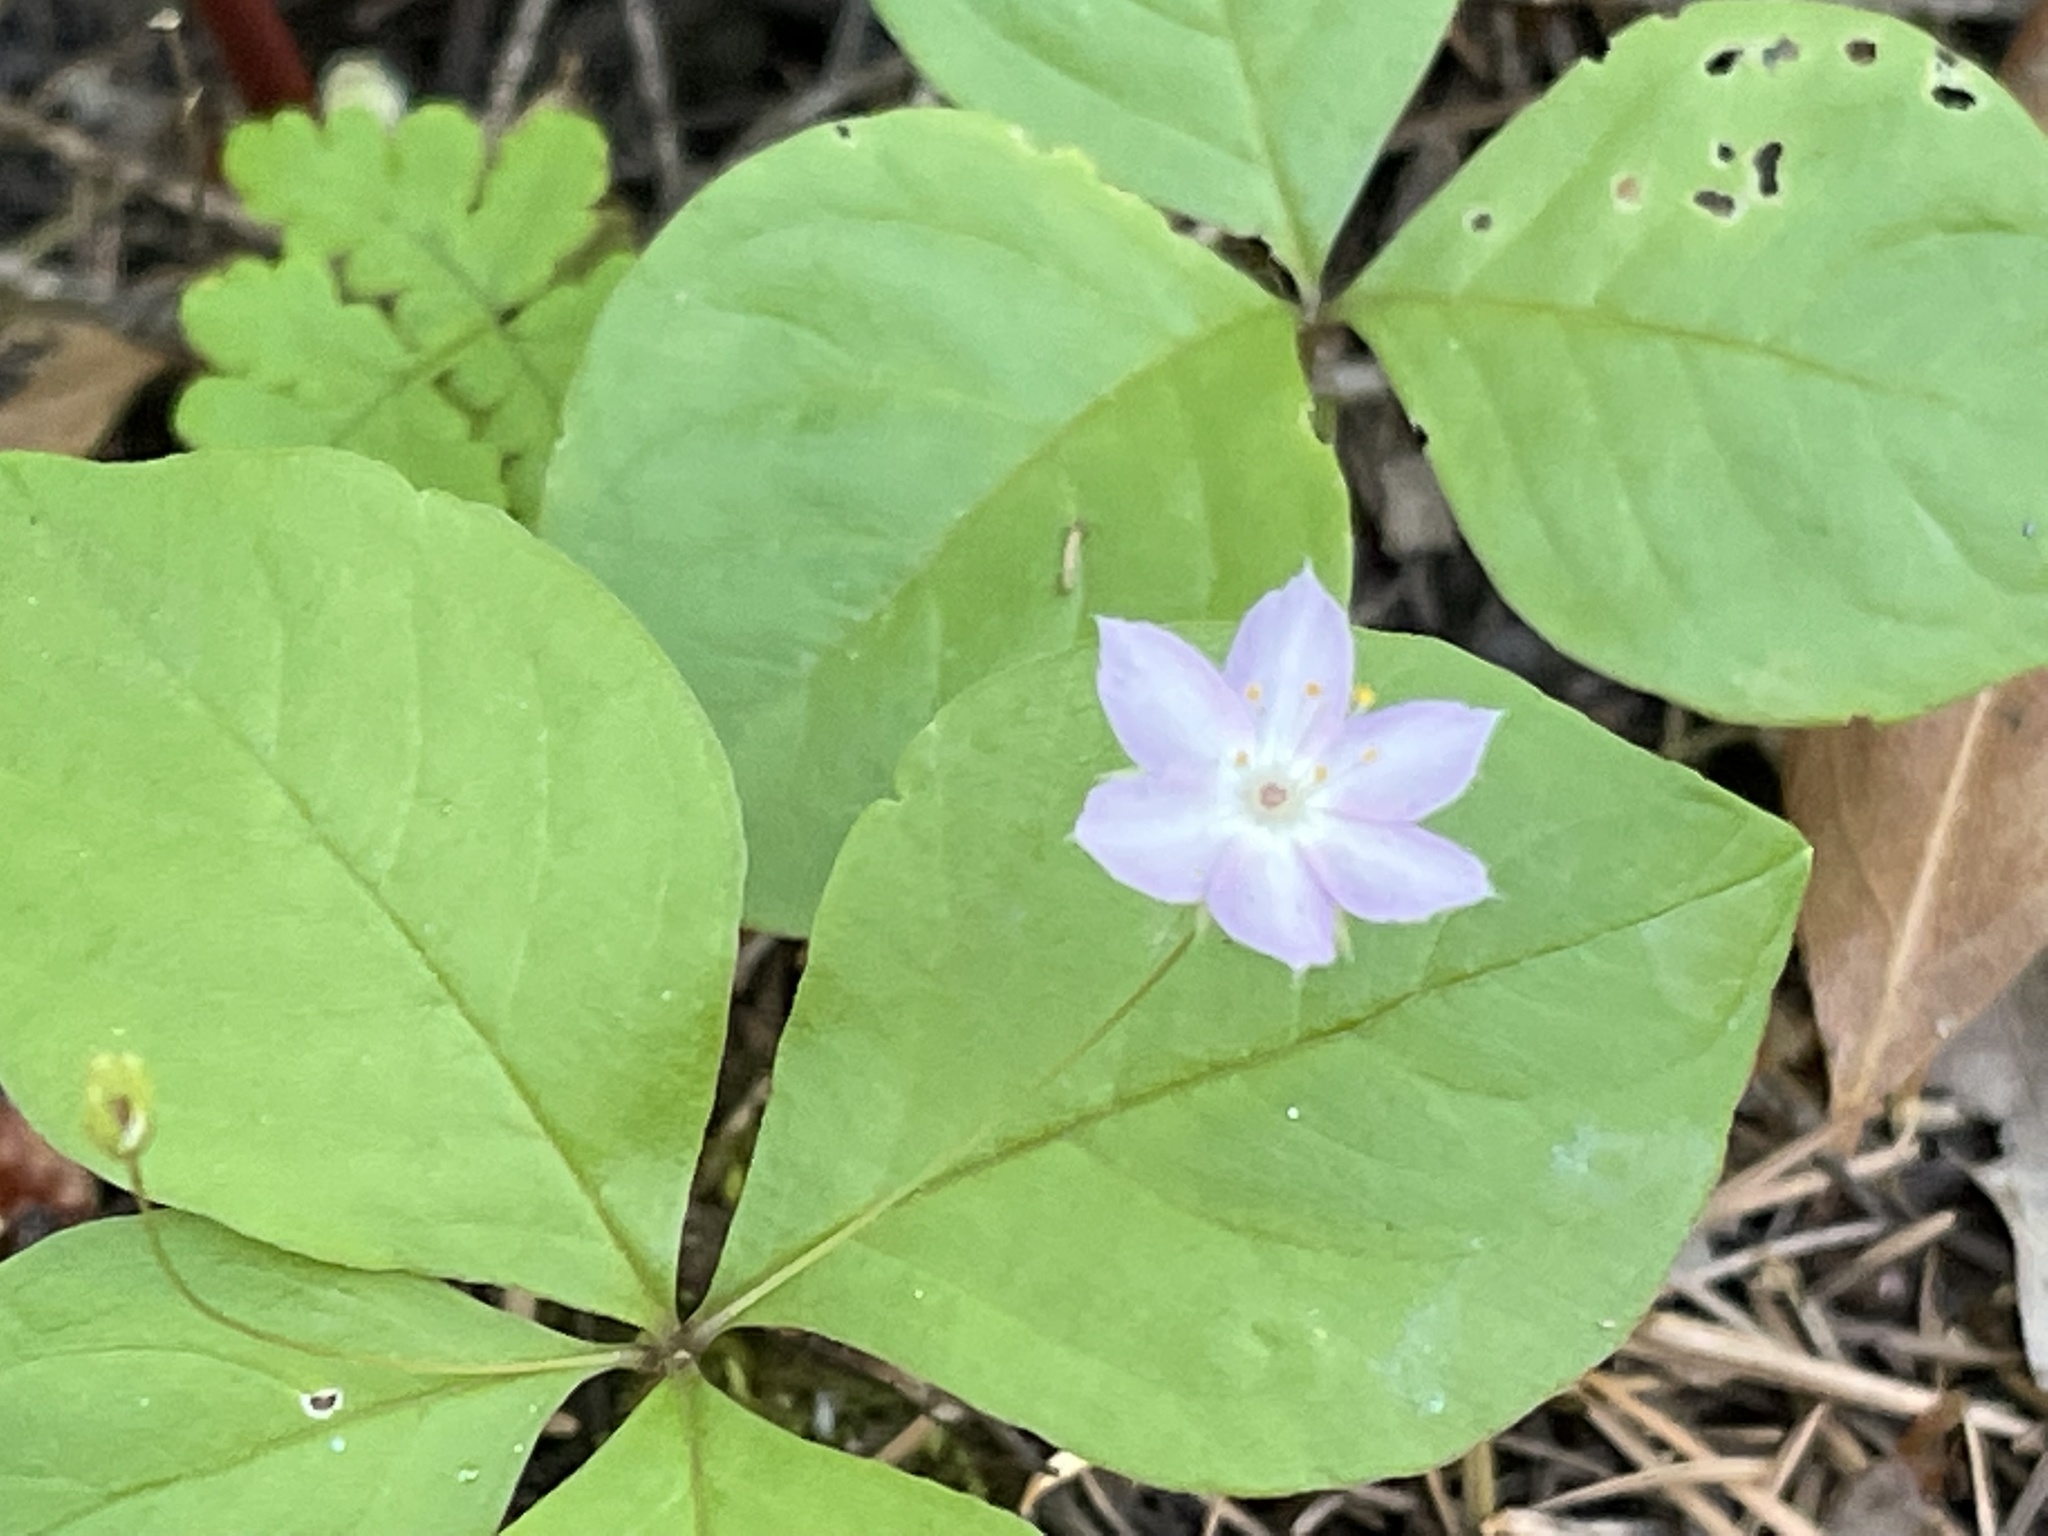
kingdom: Plantae
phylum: Tracheophyta
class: Magnoliopsida
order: Ericales
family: Primulaceae
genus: Lysimachia
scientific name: Lysimachia latifolia
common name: Pacific starflower
